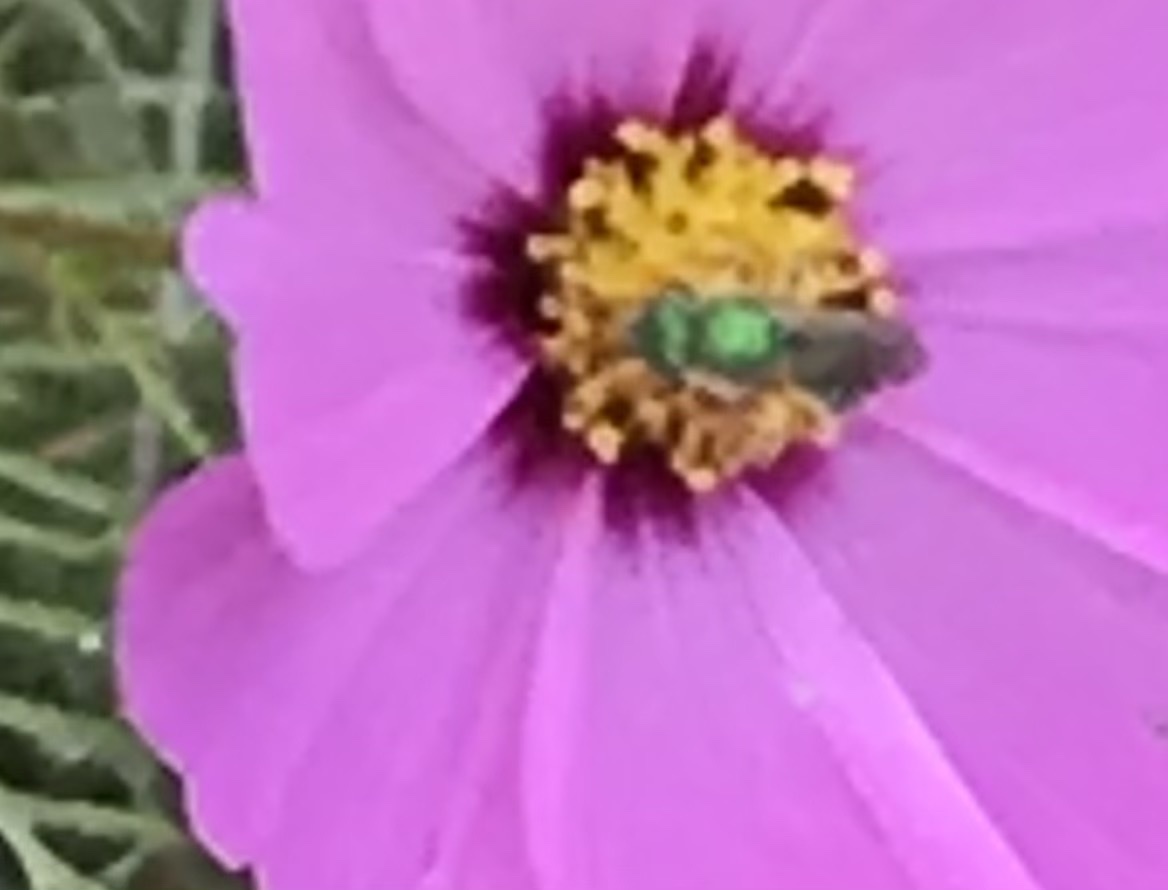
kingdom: Animalia
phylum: Arthropoda
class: Insecta
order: Hymenoptera
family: Halictidae
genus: Agapostemon
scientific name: Agapostemon
